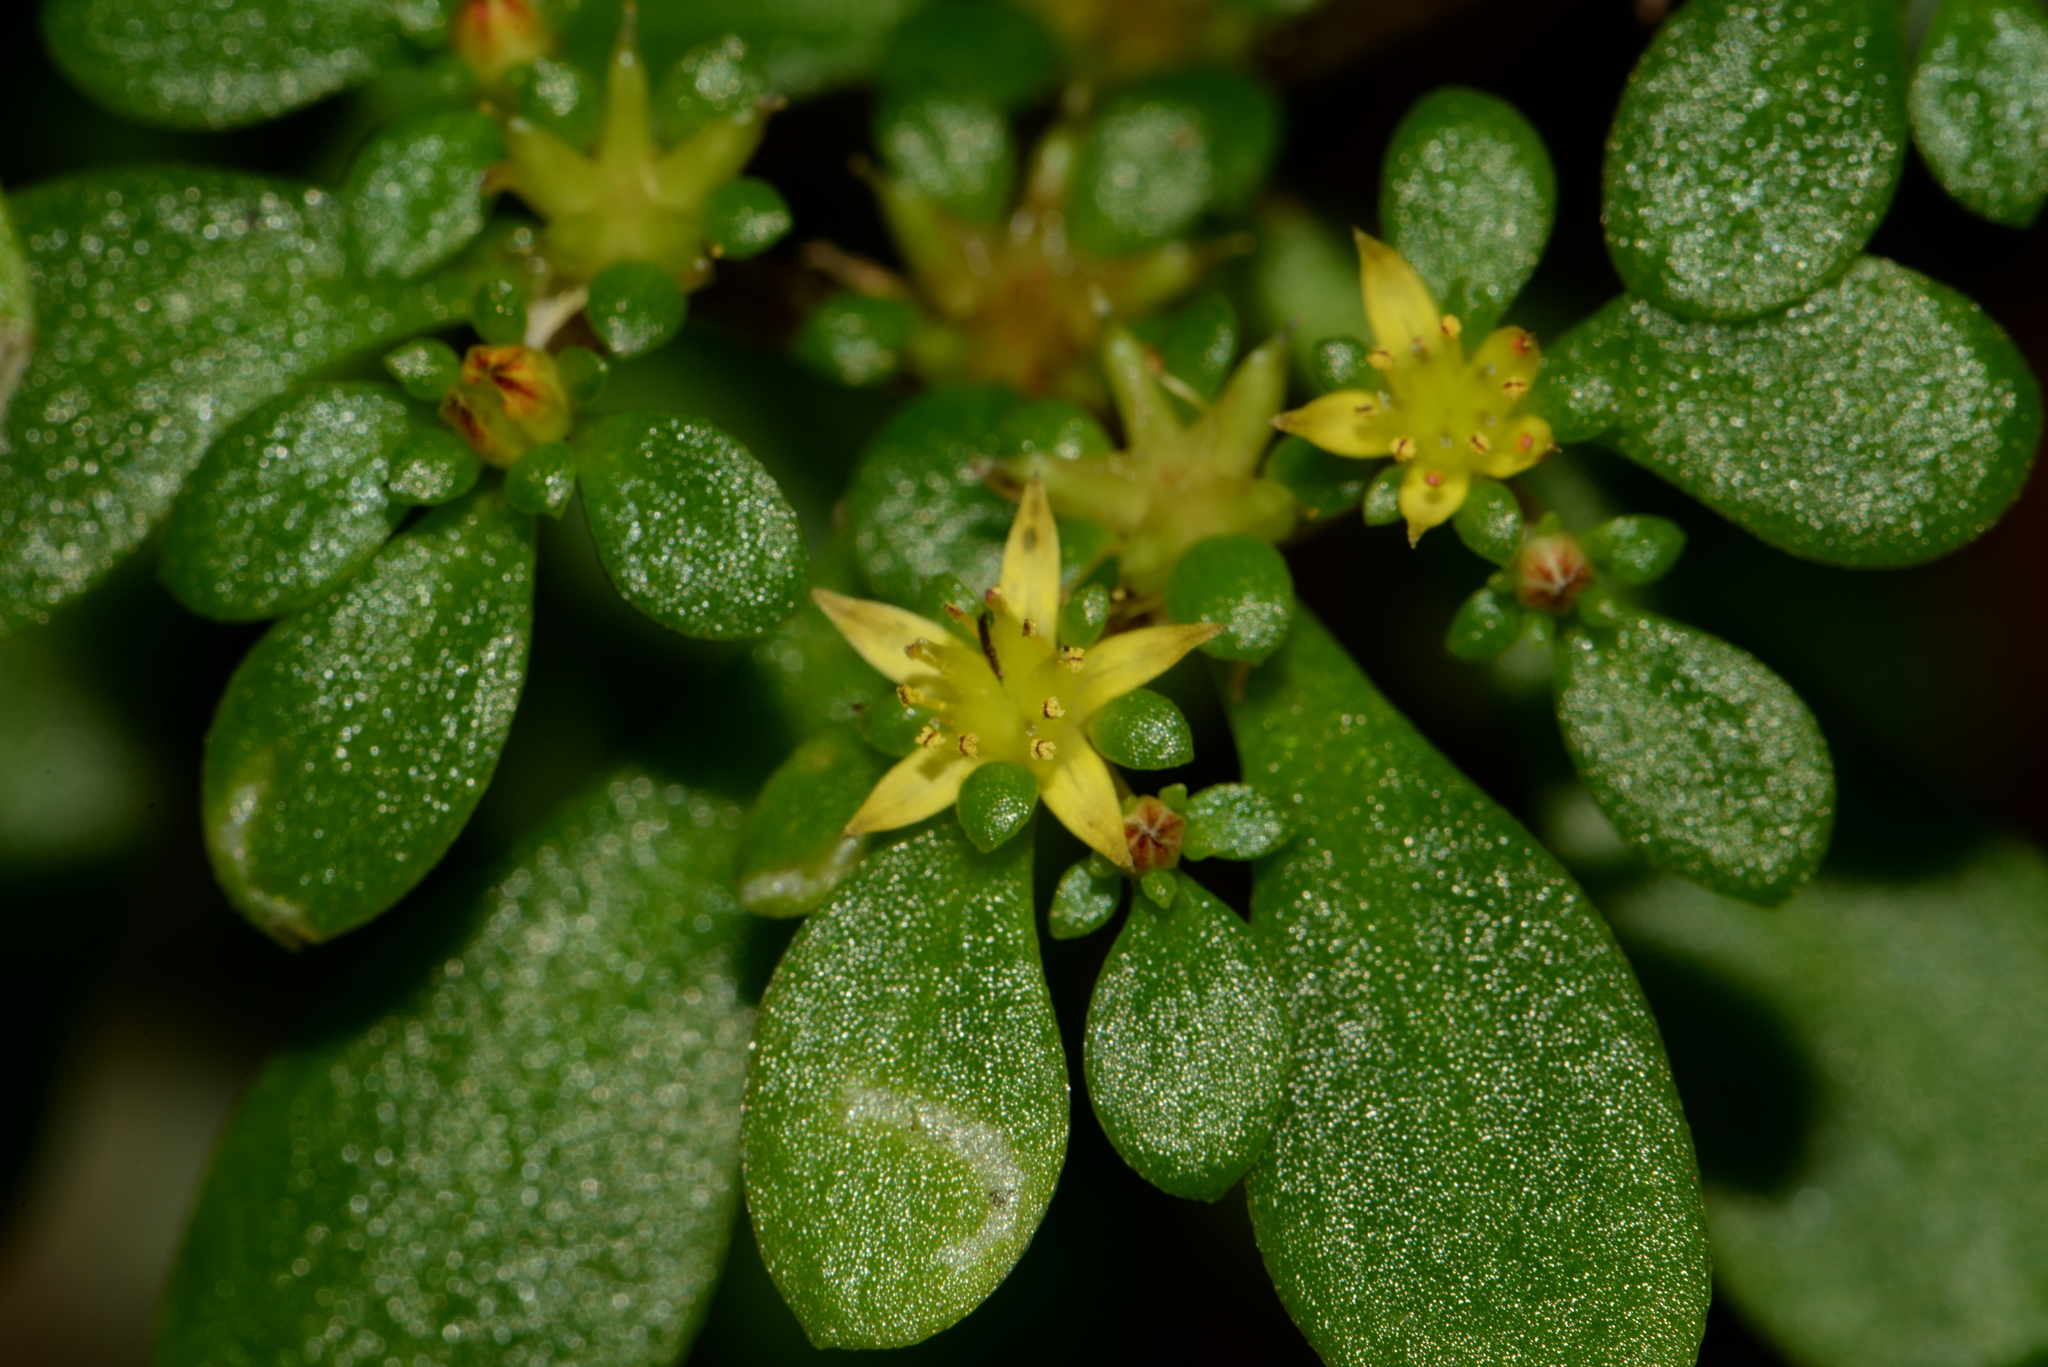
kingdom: Plantae
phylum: Tracheophyta
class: Magnoliopsida
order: Saxifragales
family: Crassulaceae
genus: Sedum
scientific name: Sedum actinocarpum
